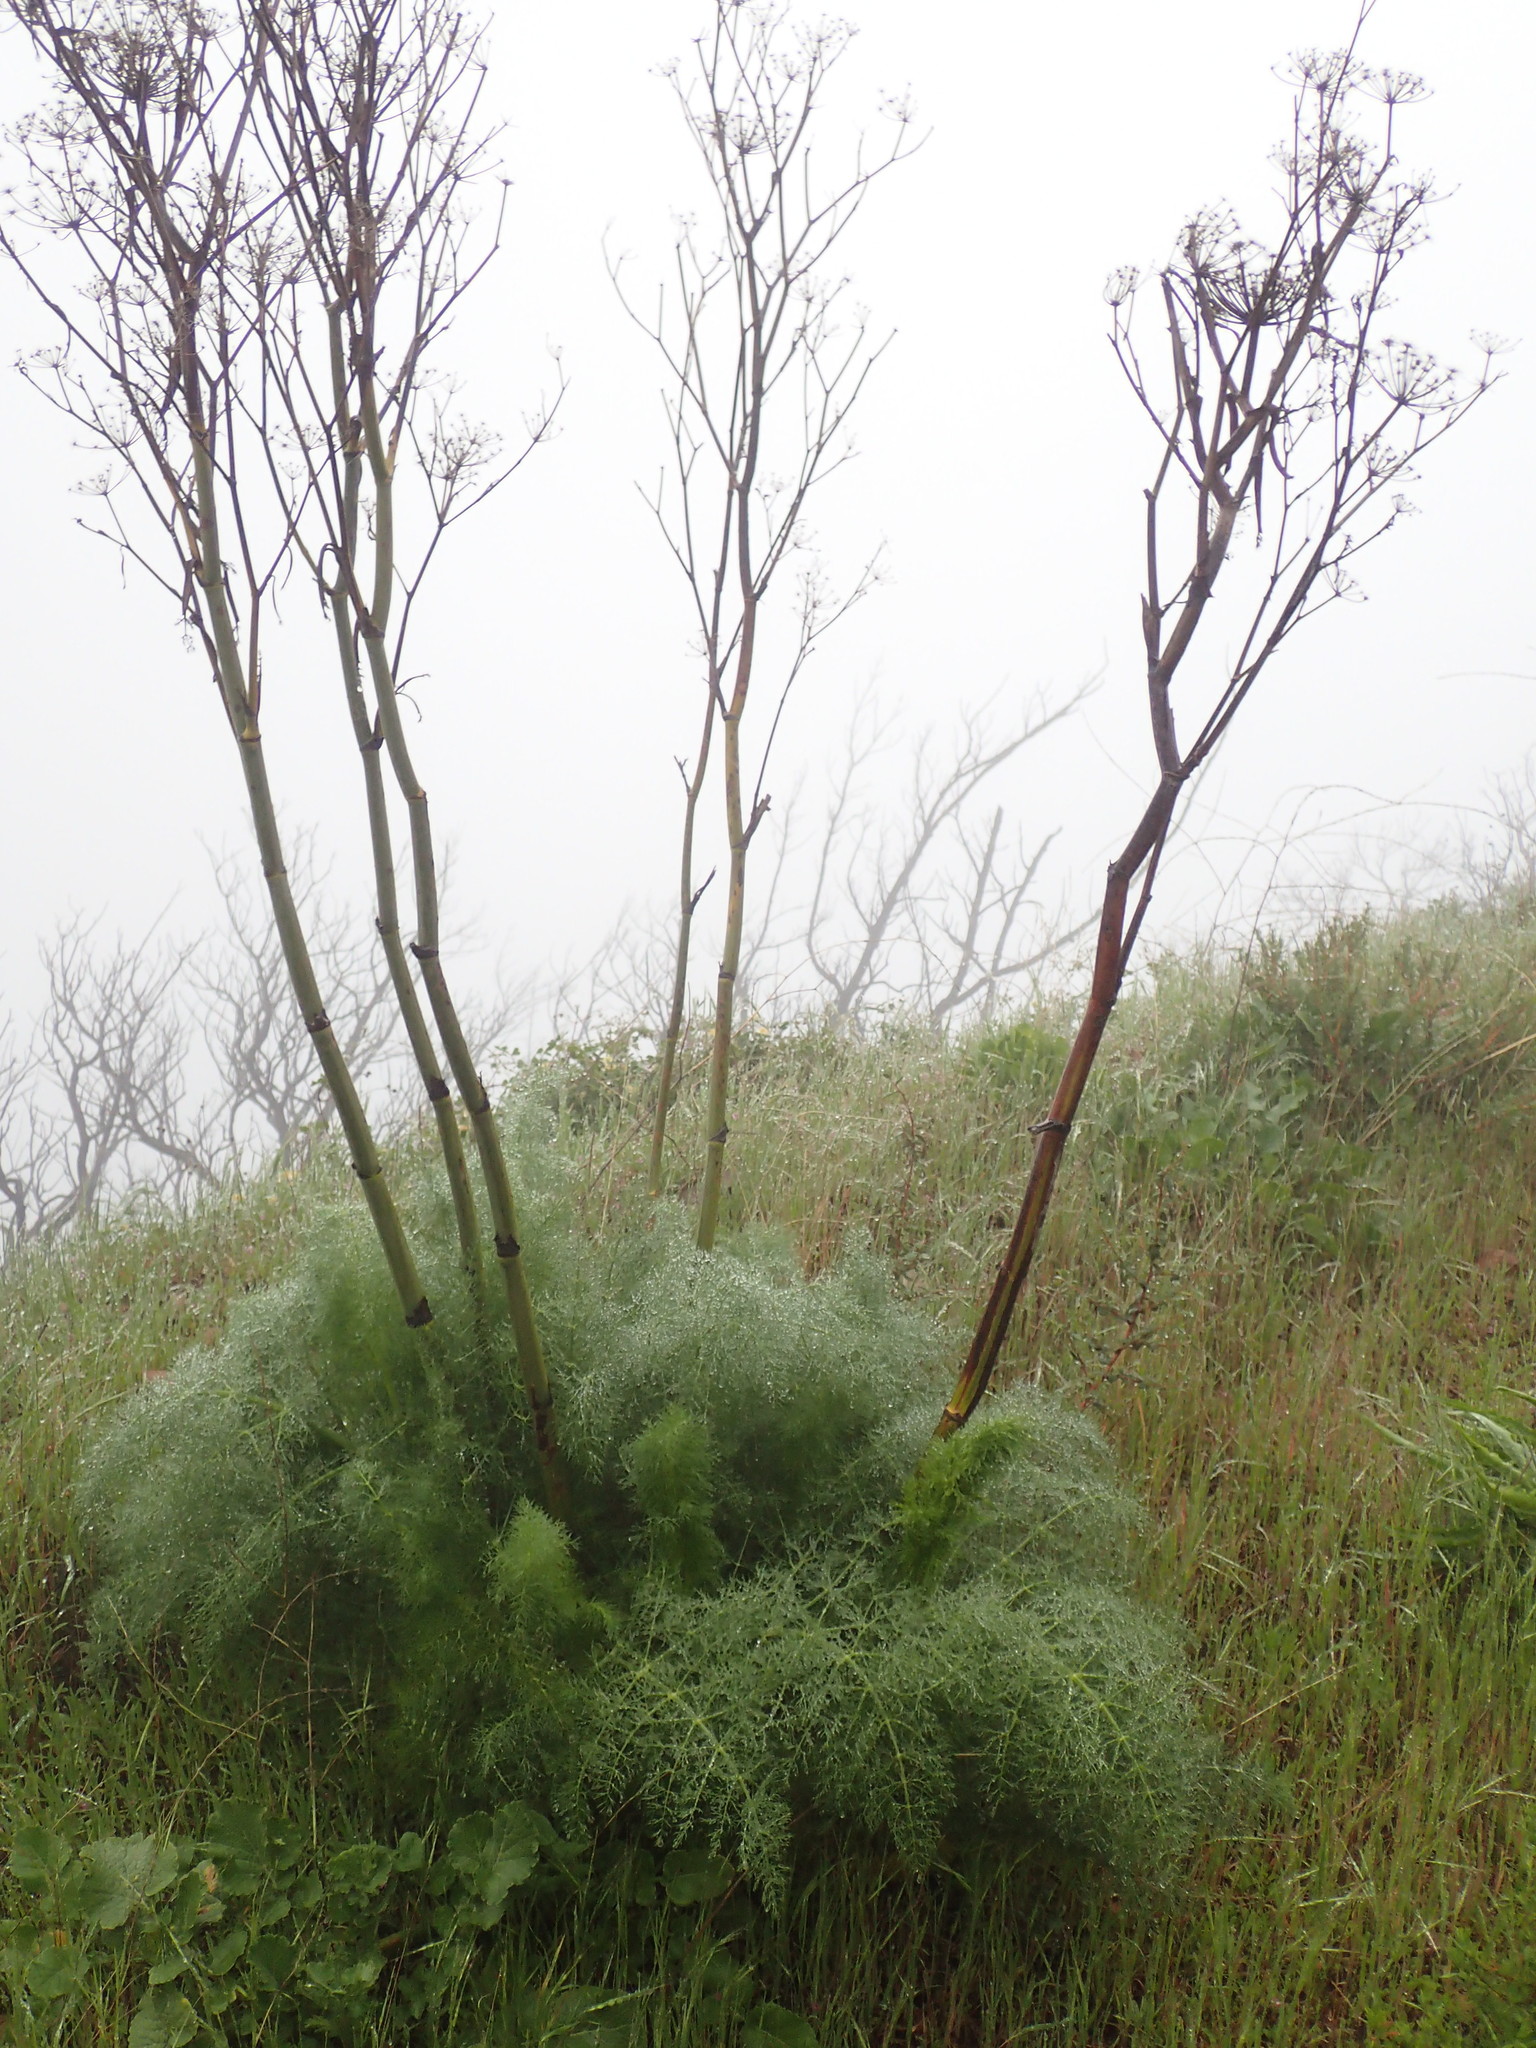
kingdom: Plantae
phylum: Tracheophyta
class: Magnoliopsida
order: Apiales
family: Apiaceae
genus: Foeniculum
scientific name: Foeniculum vulgare
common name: Fennel
